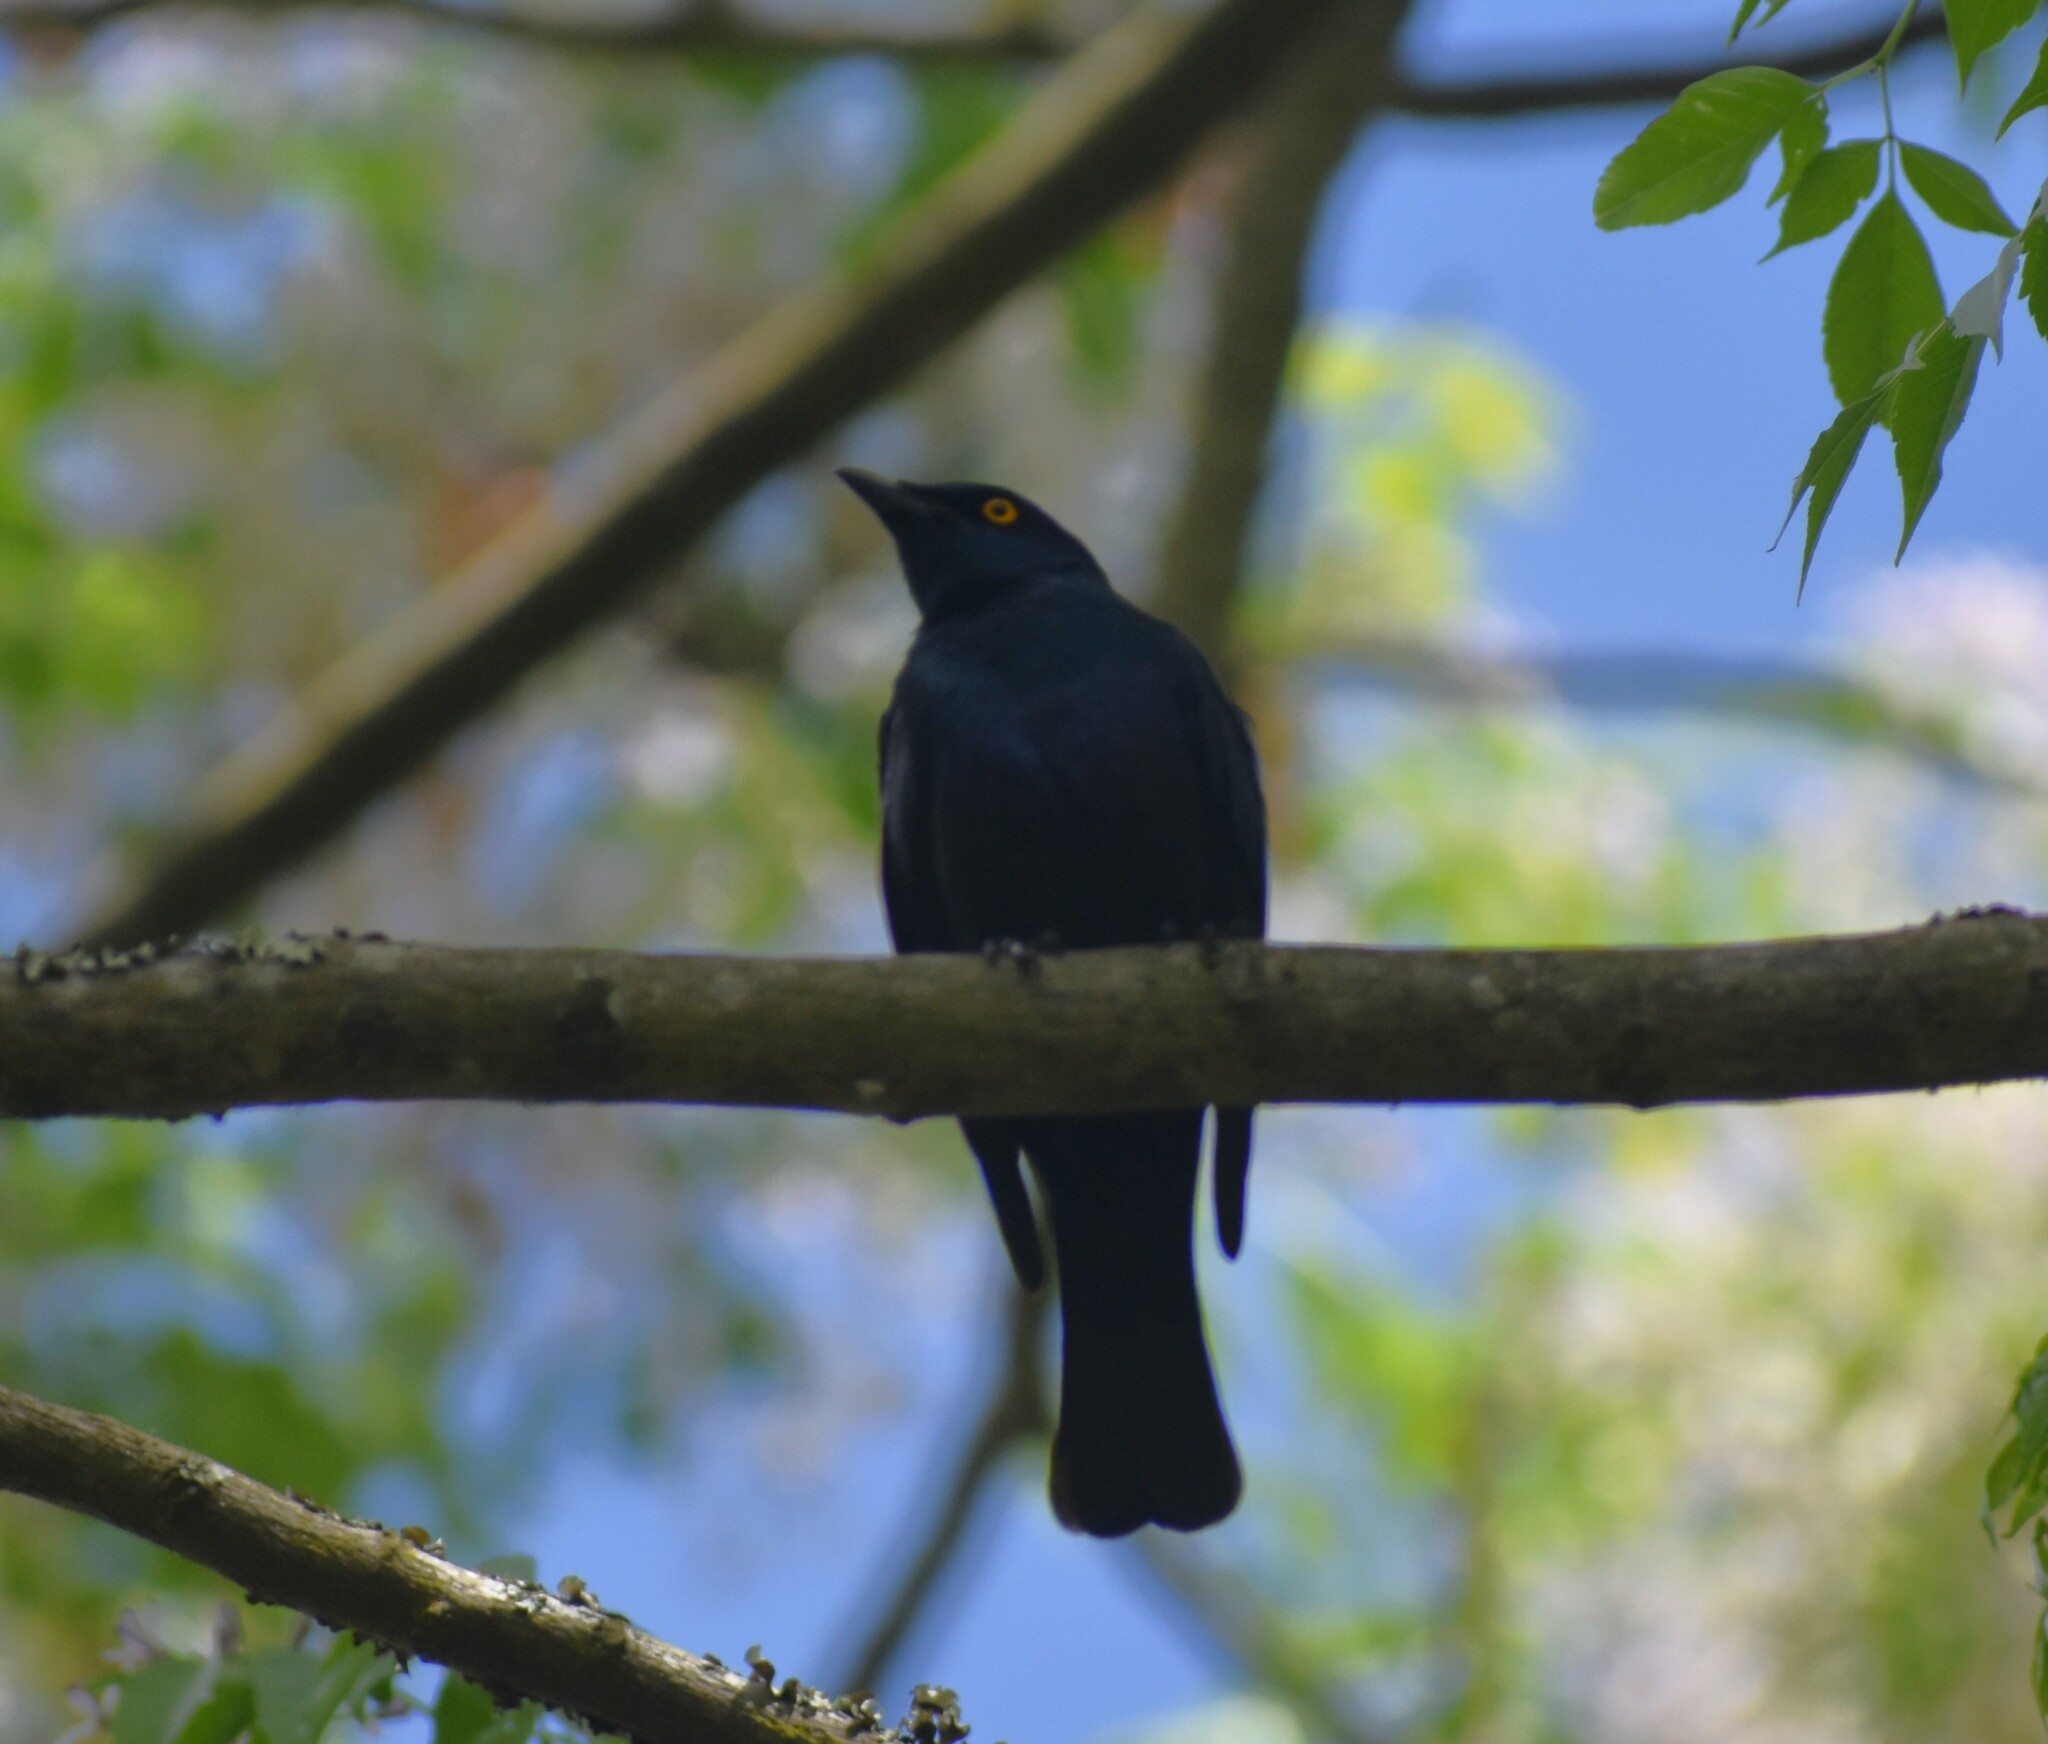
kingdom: Animalia
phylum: Chordata
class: Aves
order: Passeriformes
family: Sturnidae
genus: Notopholia
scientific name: Notopholia corrusca
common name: Black-bellied starling
